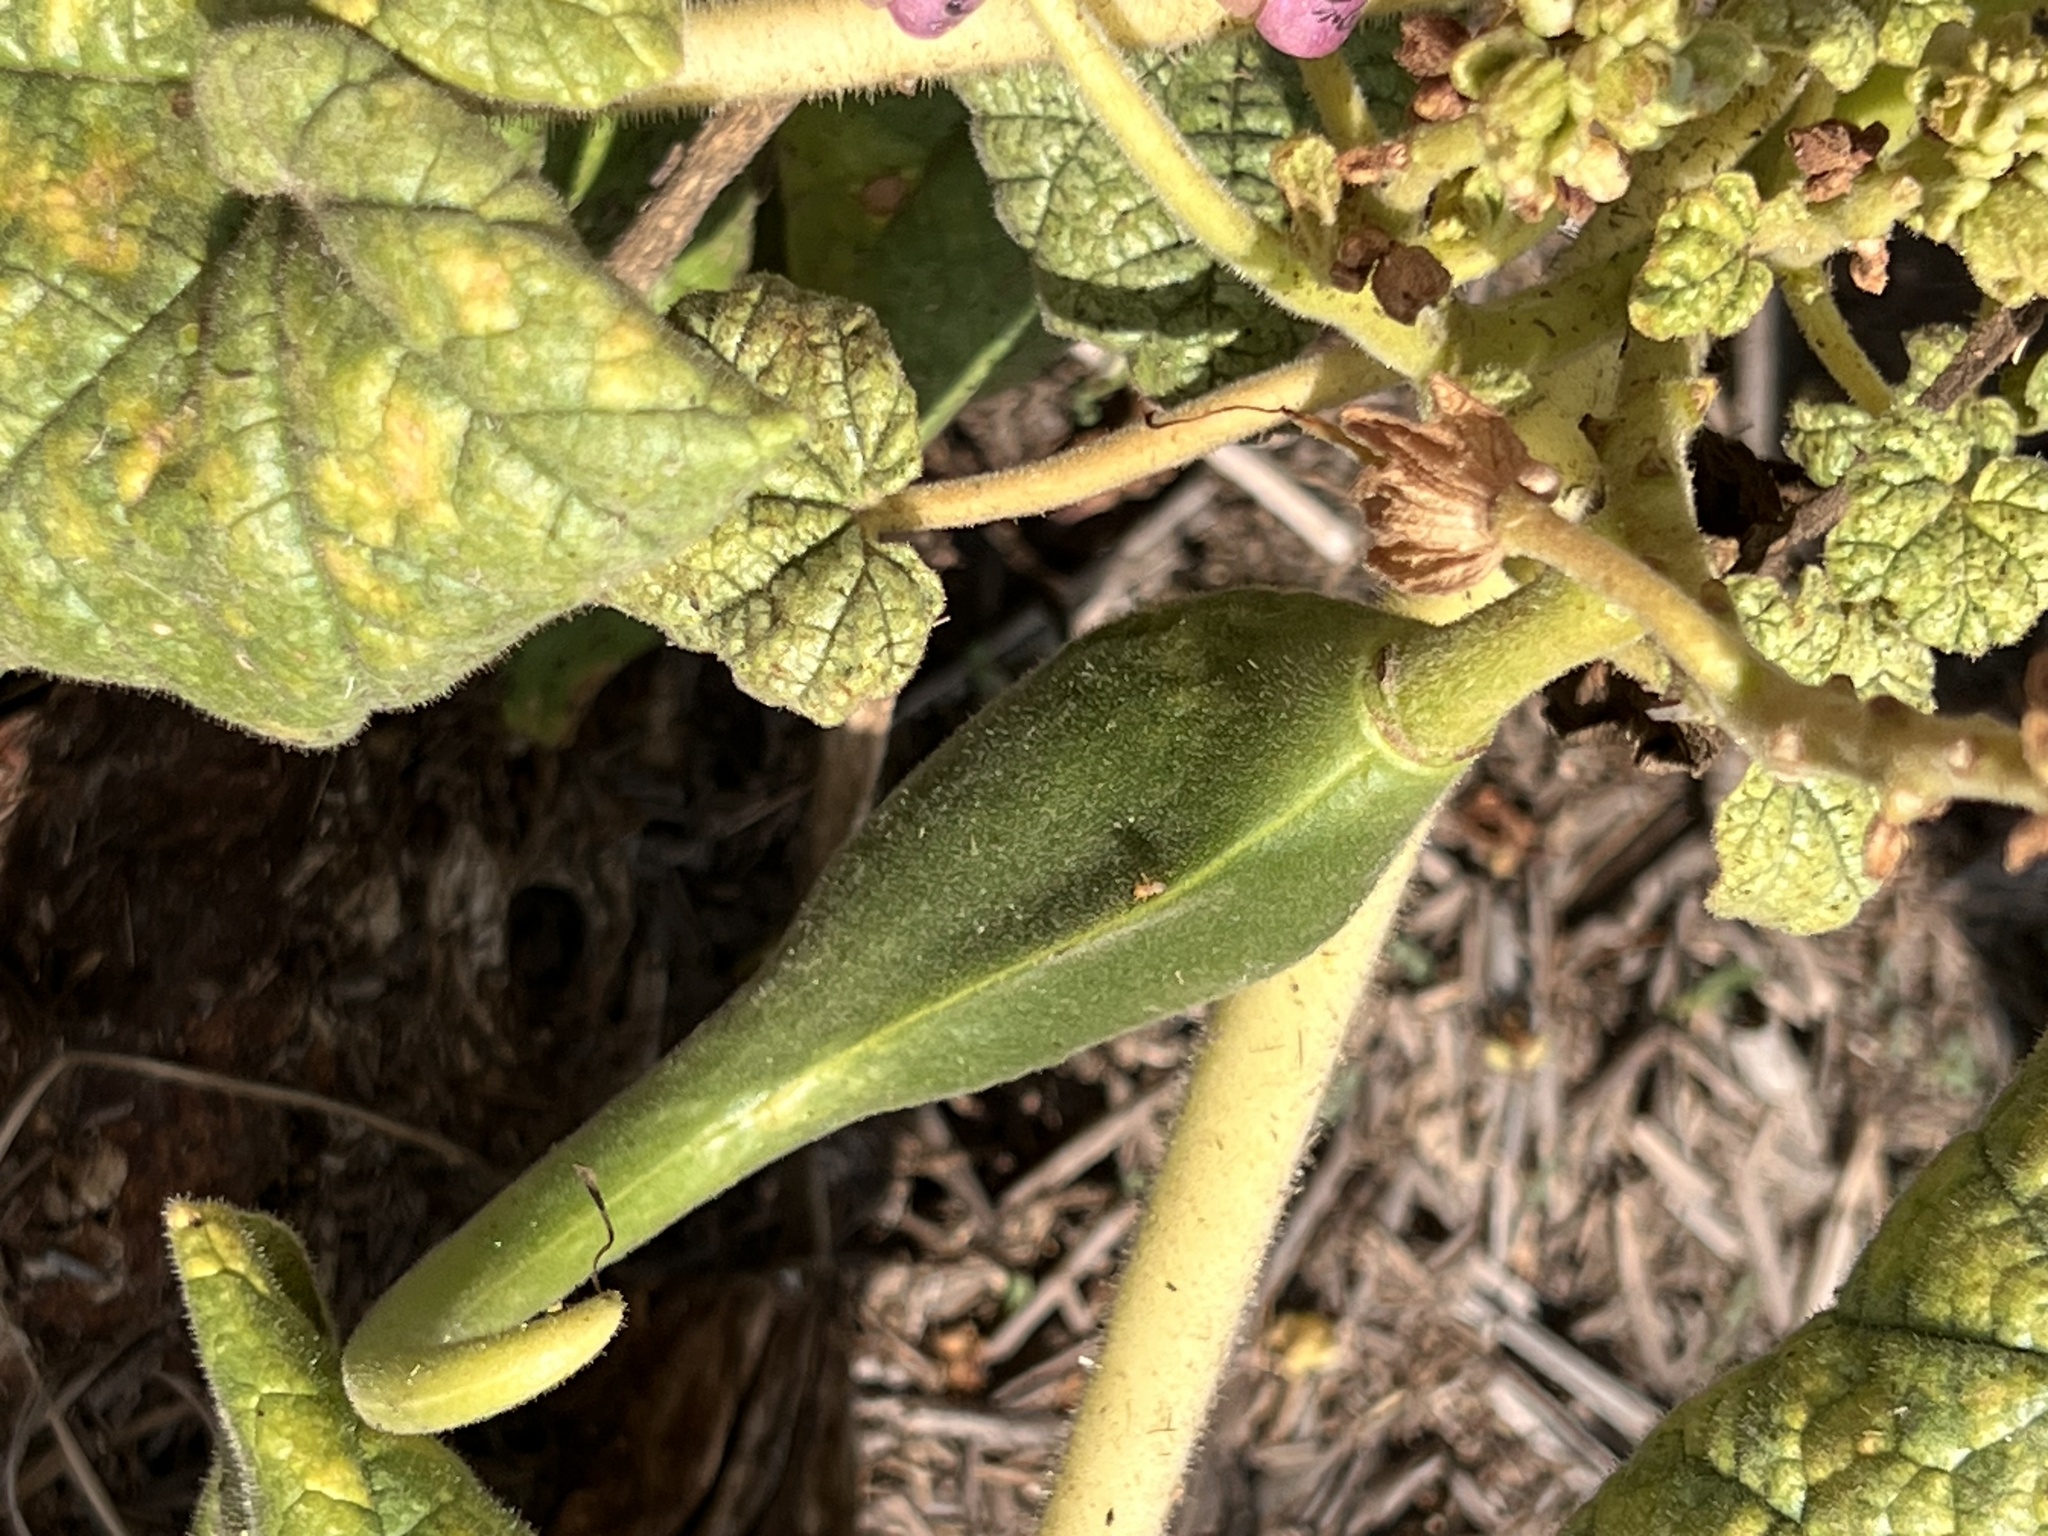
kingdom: Plantae
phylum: Tracheophyta
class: Magnoliopsida
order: Lamiales
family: Martyniaceae
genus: Proboscidea
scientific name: Proboscidea louisianica
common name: Elephant tusks
